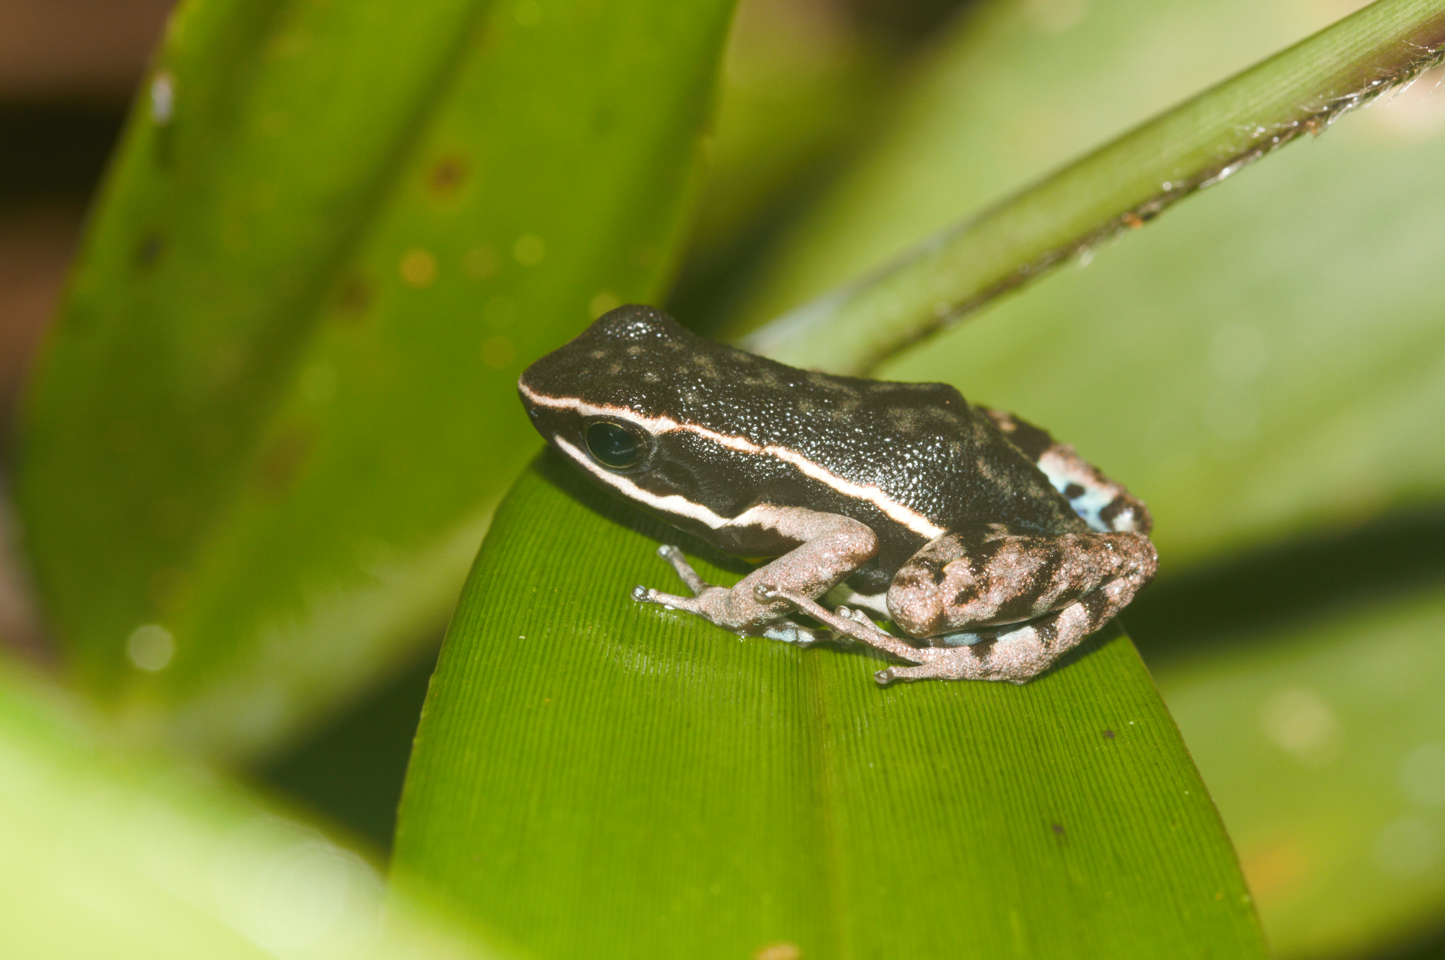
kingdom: Animalia
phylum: Chordata
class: Amphibia
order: Anura
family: Dendrobatidae
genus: Ameerega
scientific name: Ameerega hahneli
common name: Yurimaguas pioson frog
